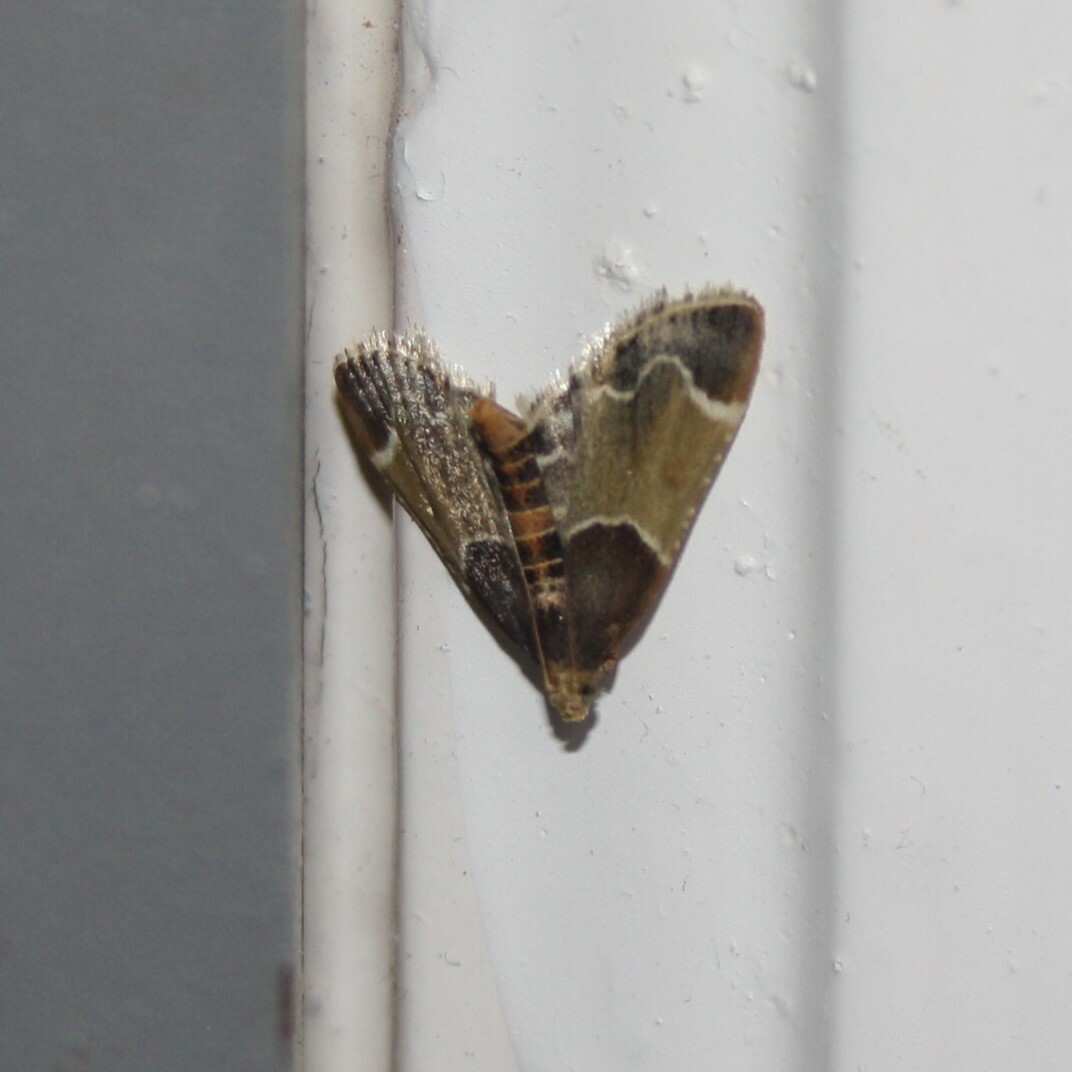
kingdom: Animalia
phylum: Arthropoda
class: Insecta
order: Lepidoptera
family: Pyralidae
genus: Pyralis
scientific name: Pyralis farinalis
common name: Meal moth
